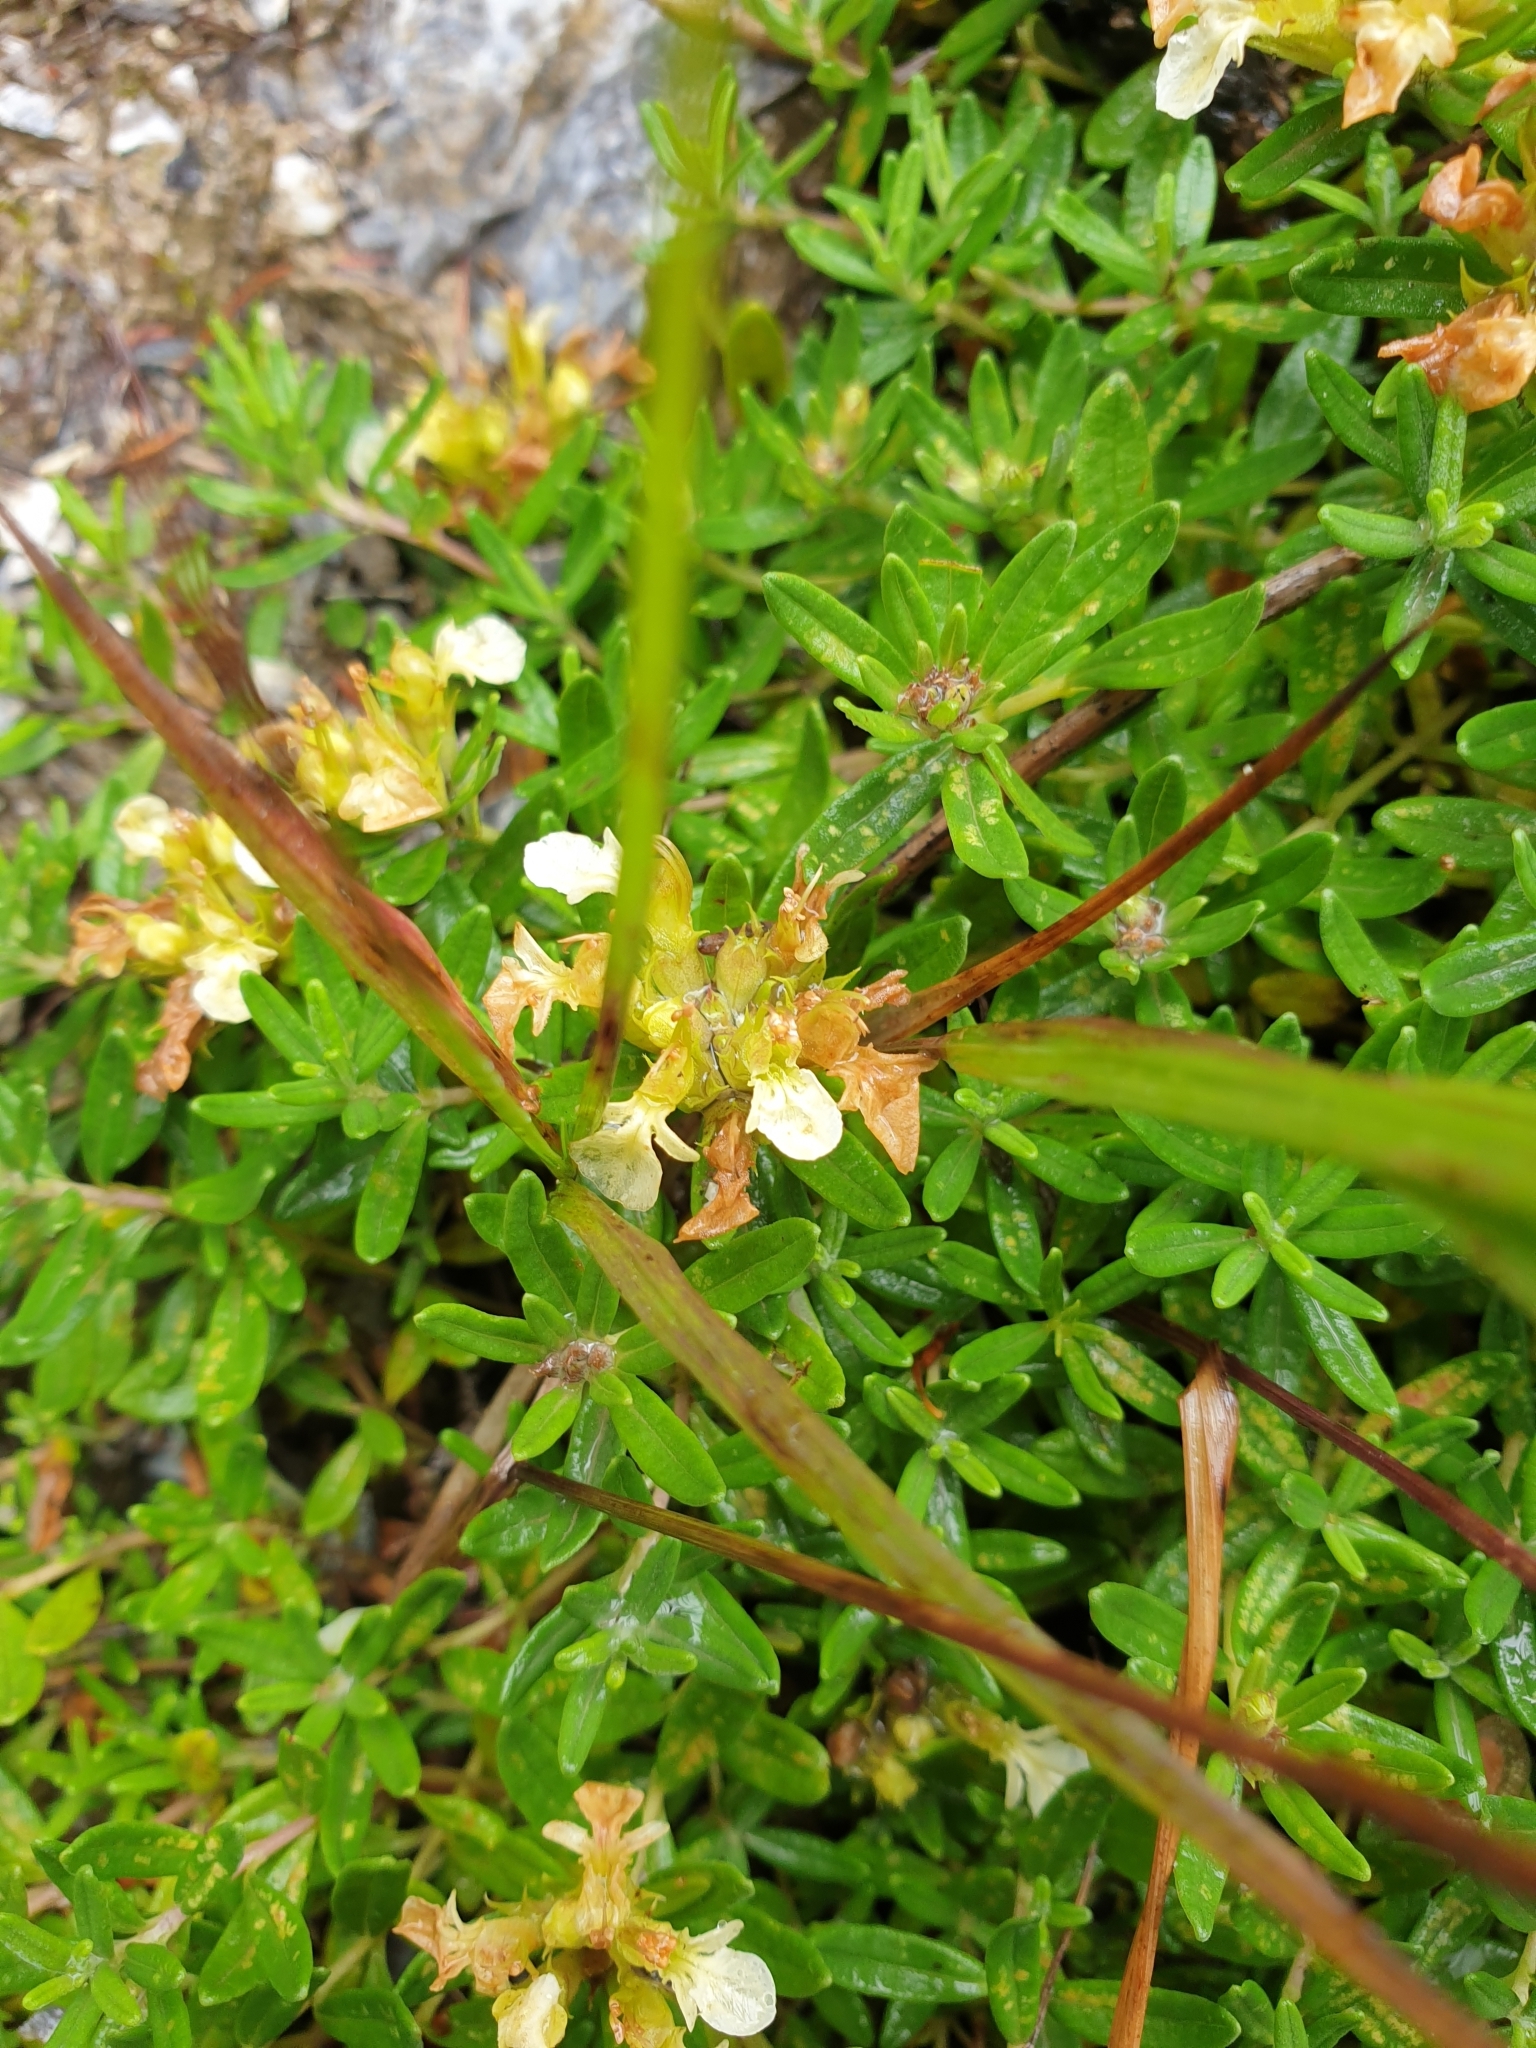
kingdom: Plantae
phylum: Tracheophyta
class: Magnoliopsida
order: Lamiales
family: Lamiaceae
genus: Teucrium
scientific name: Teucrium montanum
